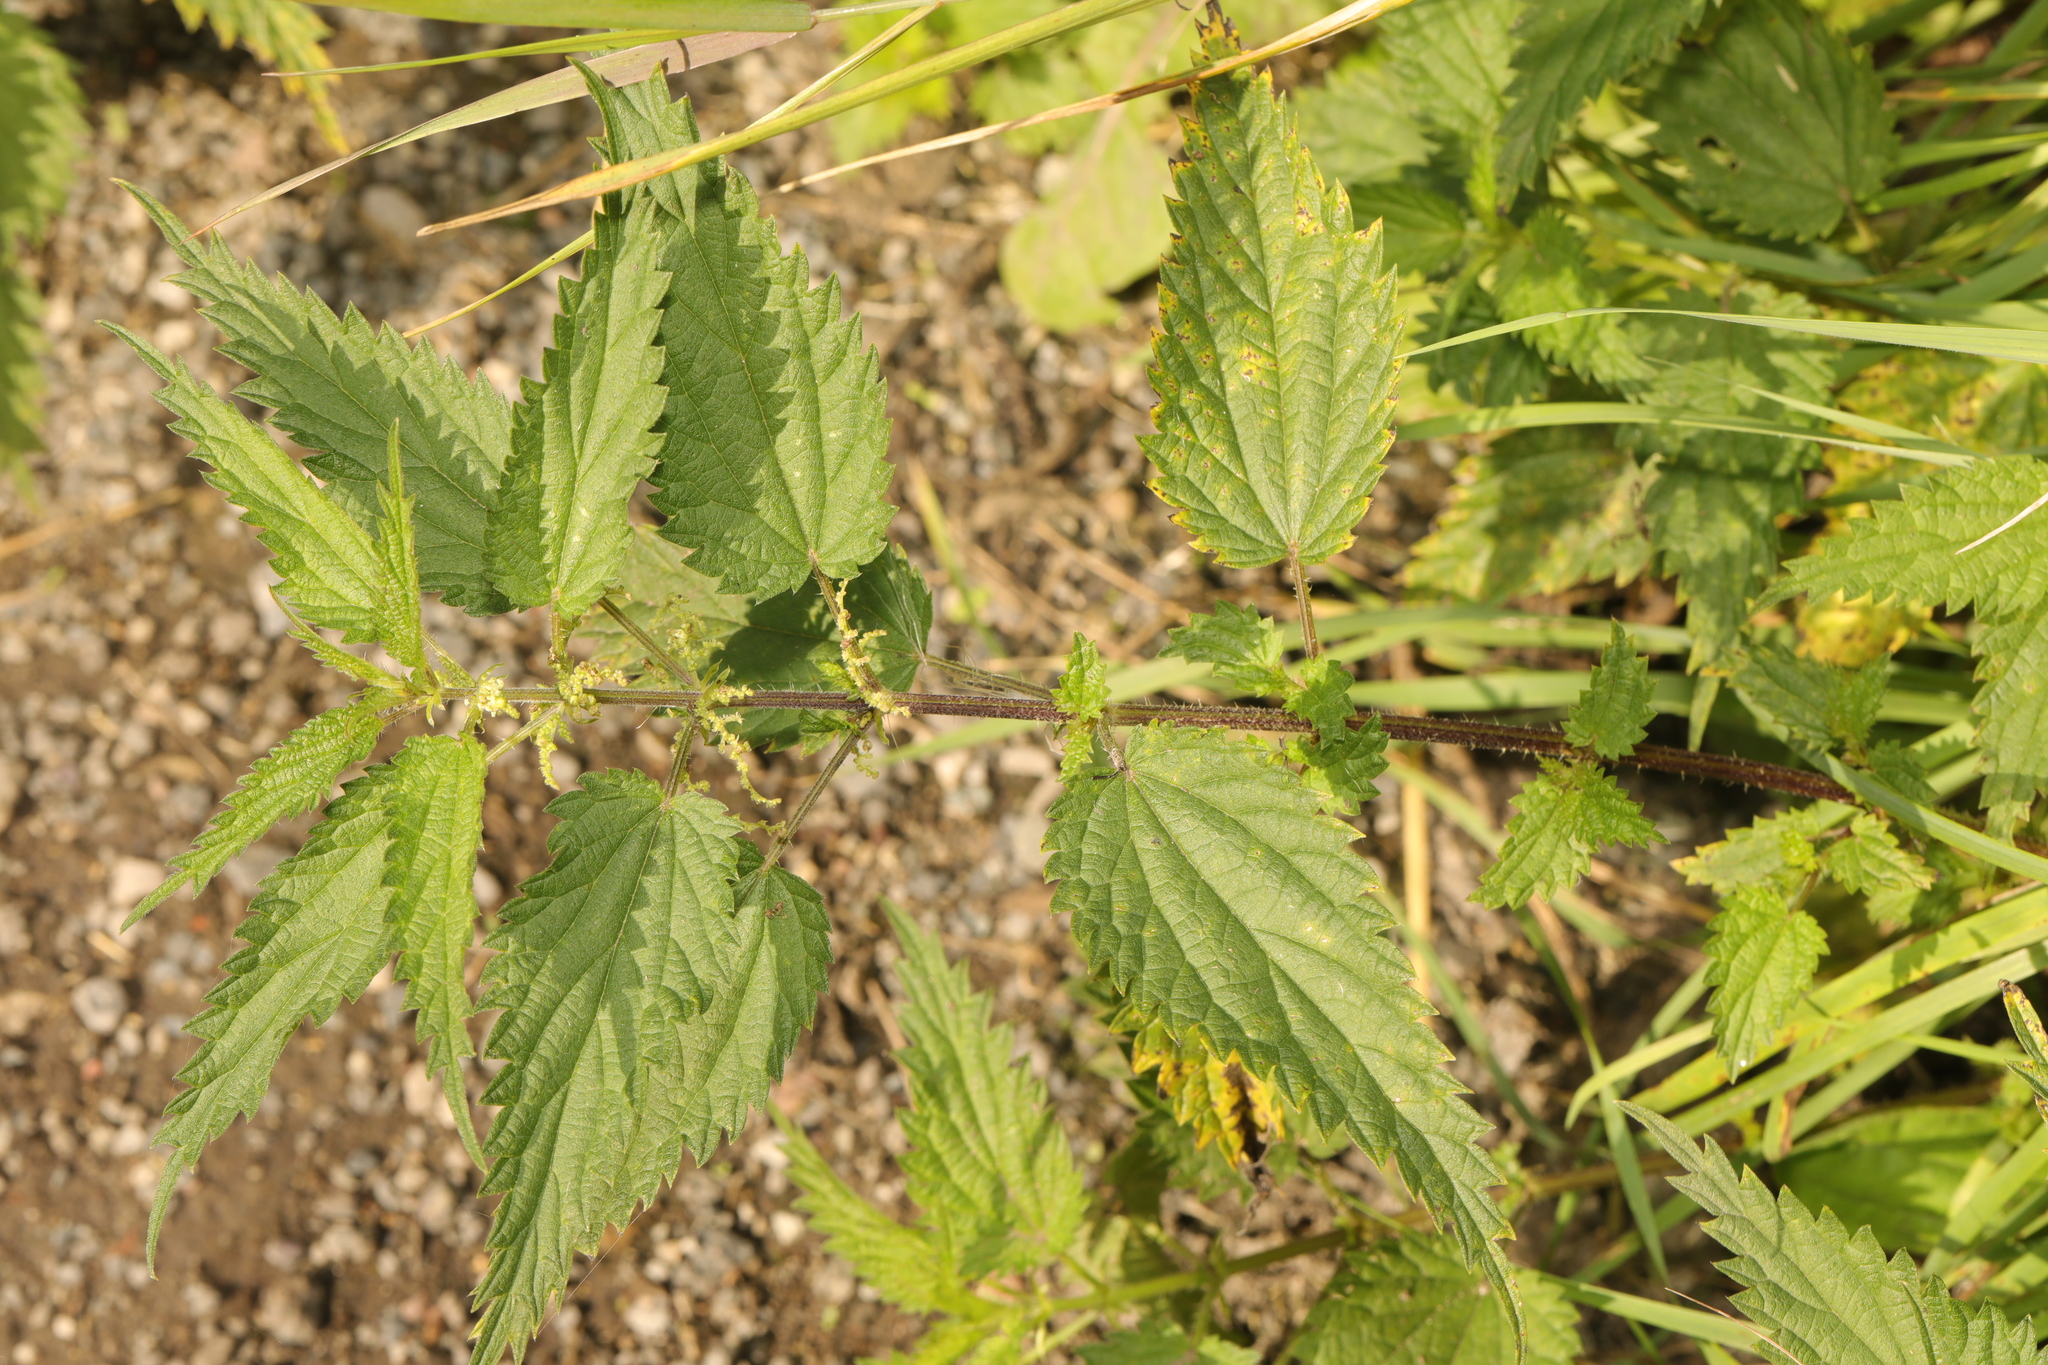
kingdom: Plantae
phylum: Tracheophyta
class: Magnoliopsida
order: Rosales
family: Urticaceae
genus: Urtica
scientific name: Urtica dioica
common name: Common nettle
